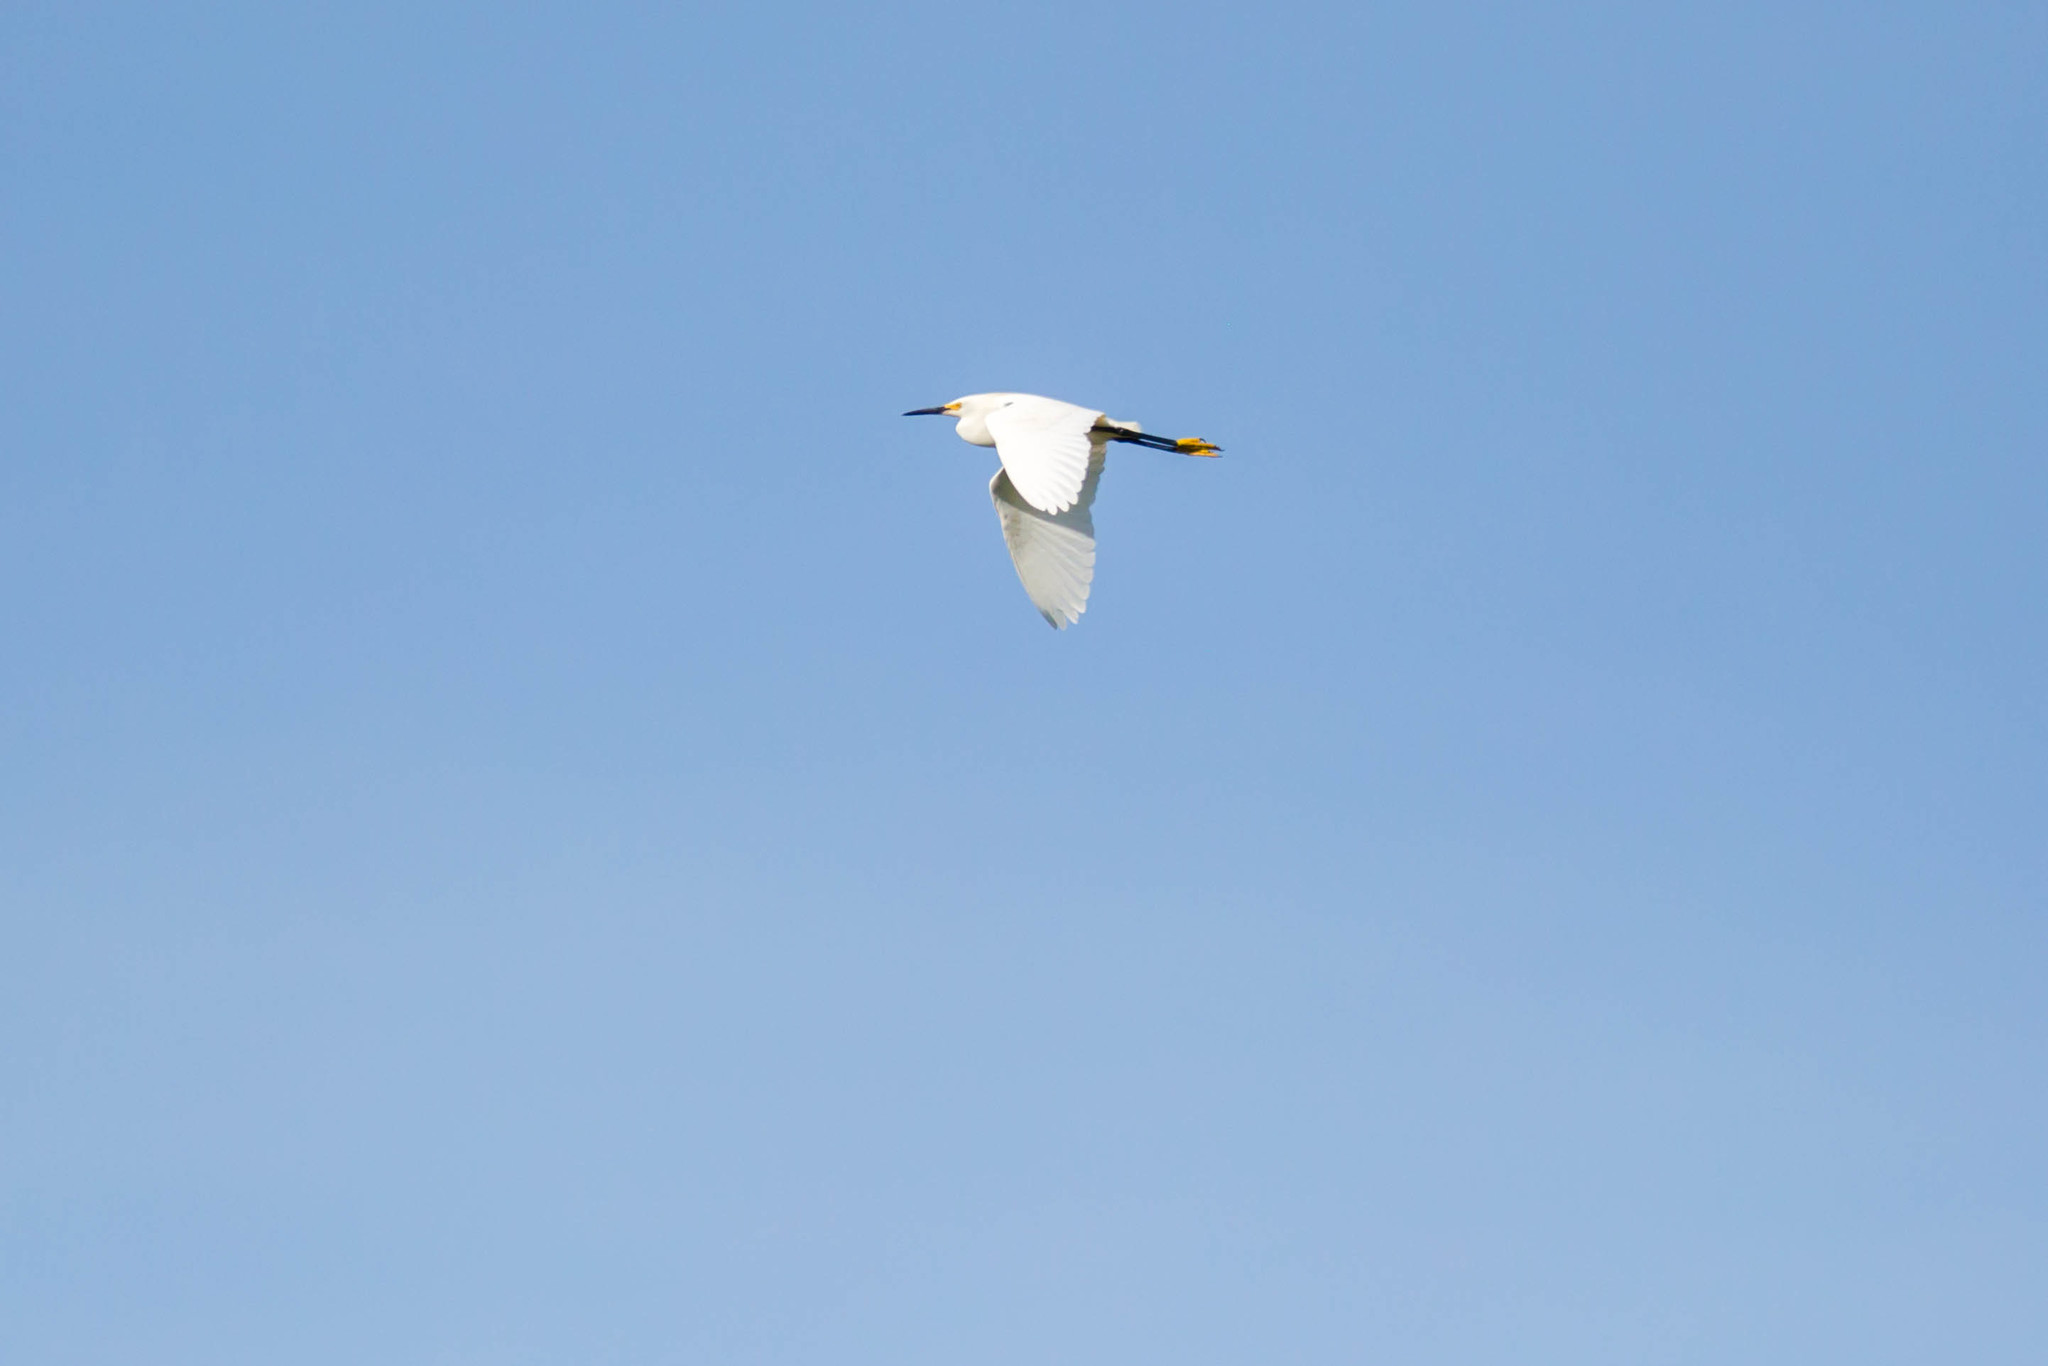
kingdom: Animalia
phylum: Chordata
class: Aves
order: Pelecaniformes
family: Ardeidae
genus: Egretta
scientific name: Egretta thula
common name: Snowy egret
